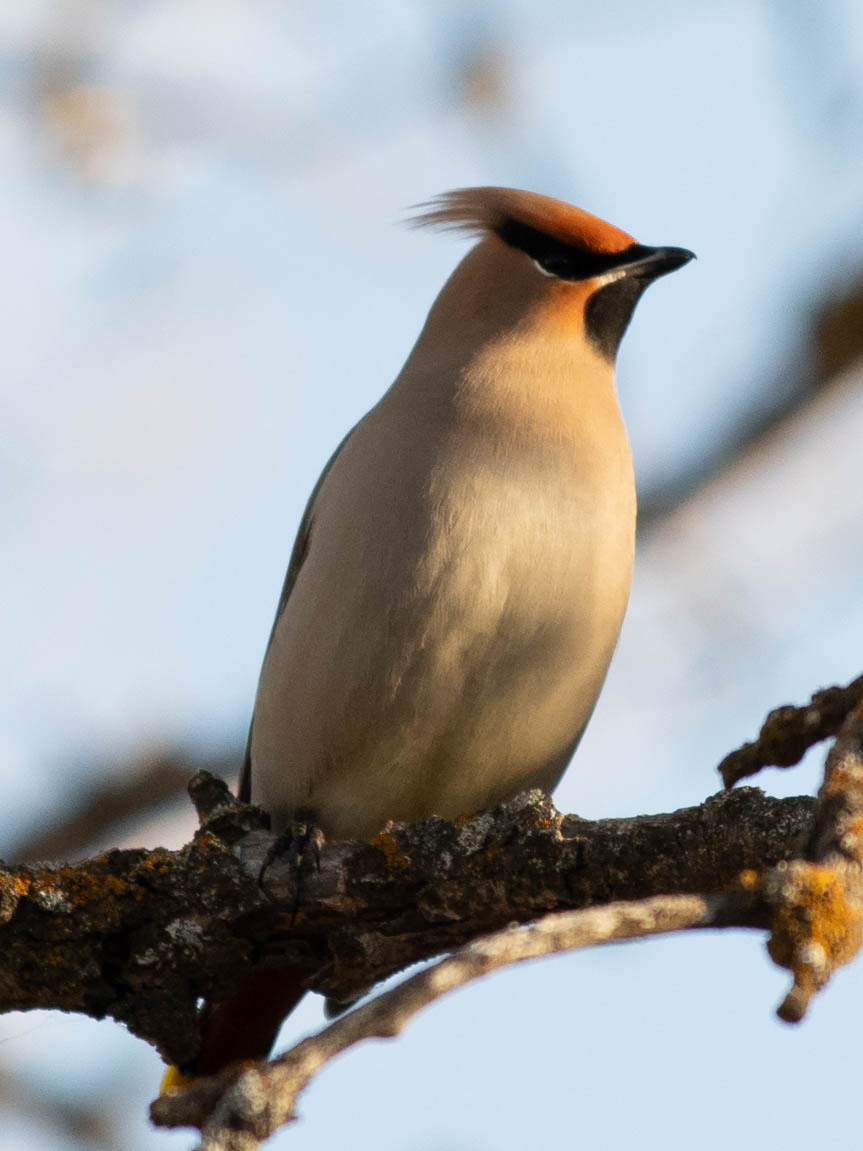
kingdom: Animalia
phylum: Chordata
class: Aves
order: Passeriformes
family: Bombycillidae
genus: Bombycilla
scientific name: Bombycilla garrulus
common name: Bohemian waxwing
